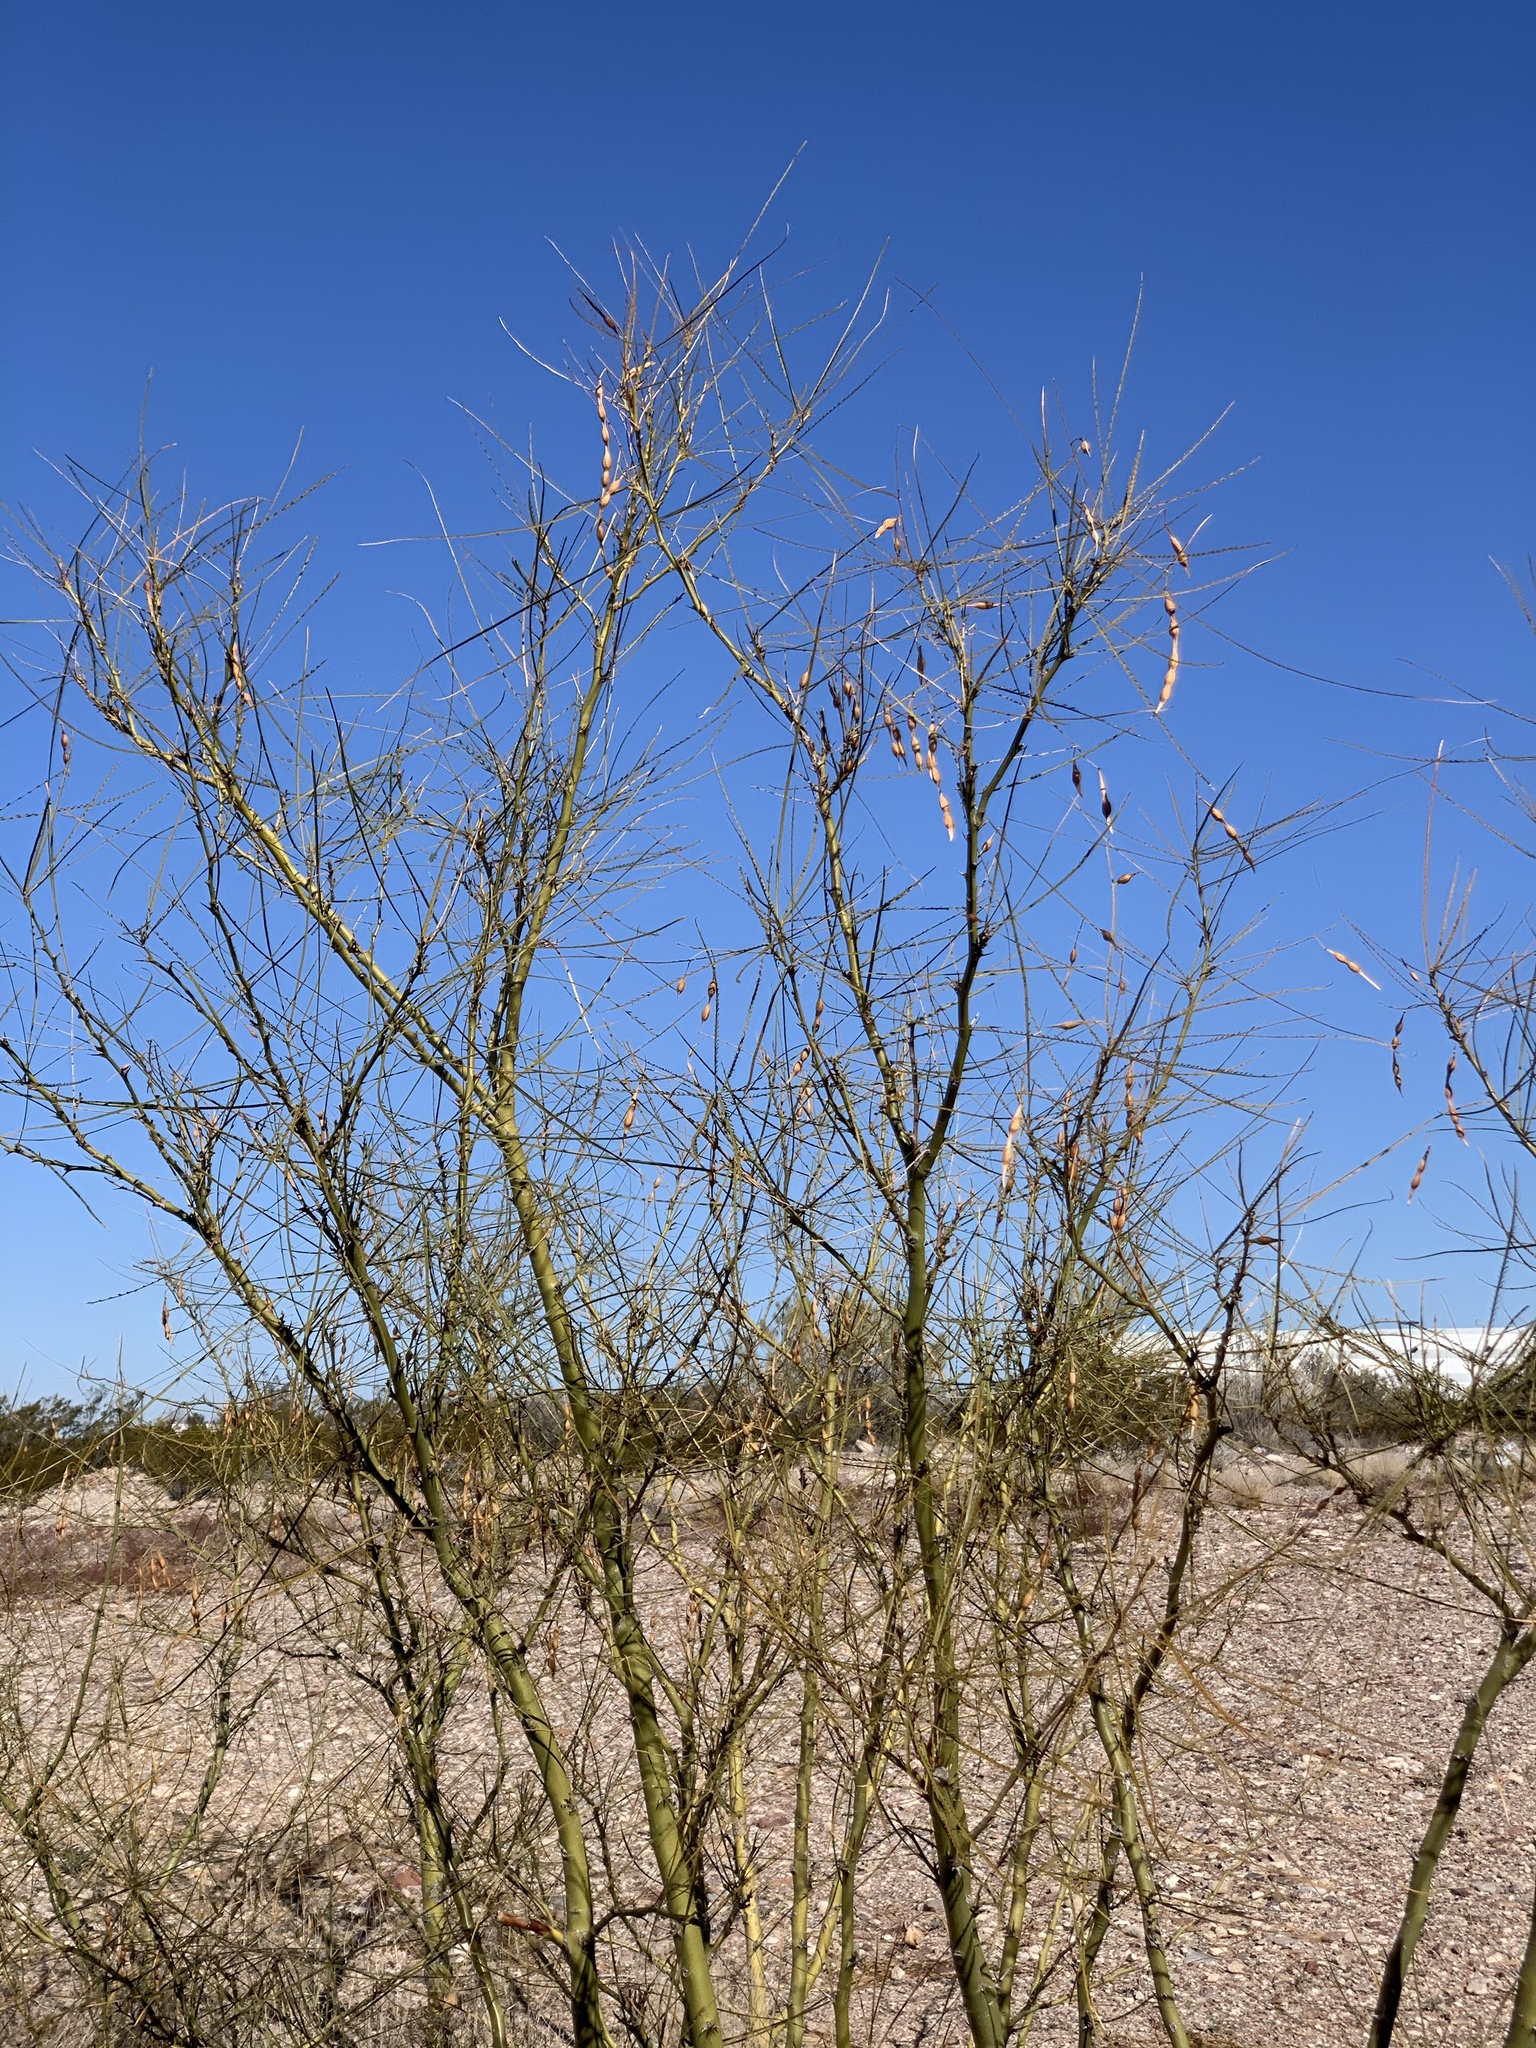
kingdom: Plantae
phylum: Tracheophyta
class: Magnoliopsida
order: Fabales
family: Fabaceae
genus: Parkinsonia
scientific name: Parkinsonia aculeata
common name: Jerusalem thorn
